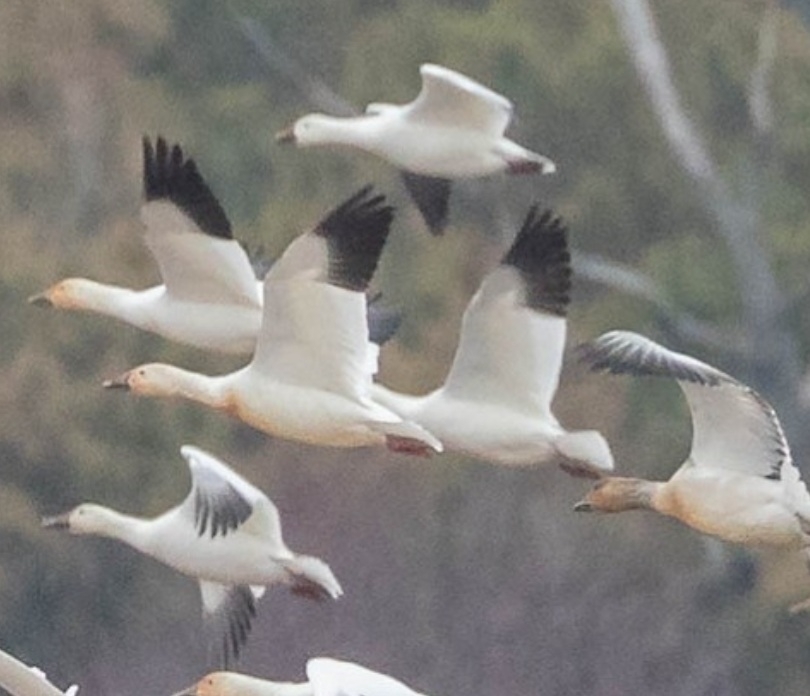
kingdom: Animalia
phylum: Chordata
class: Aves
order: Anseriformes
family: Anatidae
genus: Anser
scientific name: Anser rossii
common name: Ross's goose
